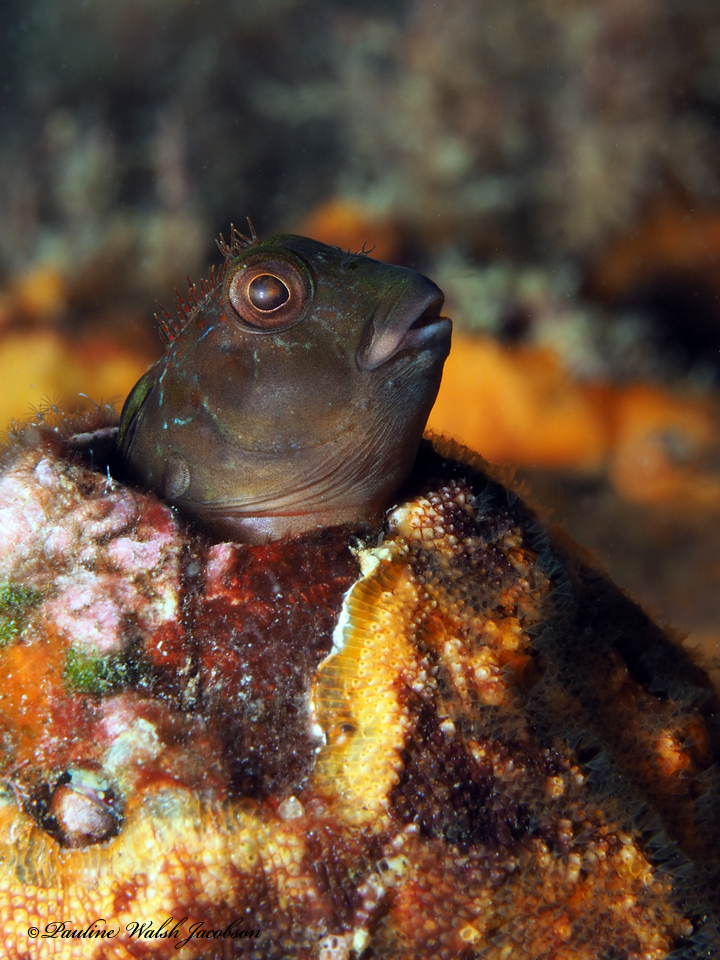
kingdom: Animalia
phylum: Chordata
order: Perciformes
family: Blenniidae
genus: Scartella
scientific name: Scartella cristata
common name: Molly miller
